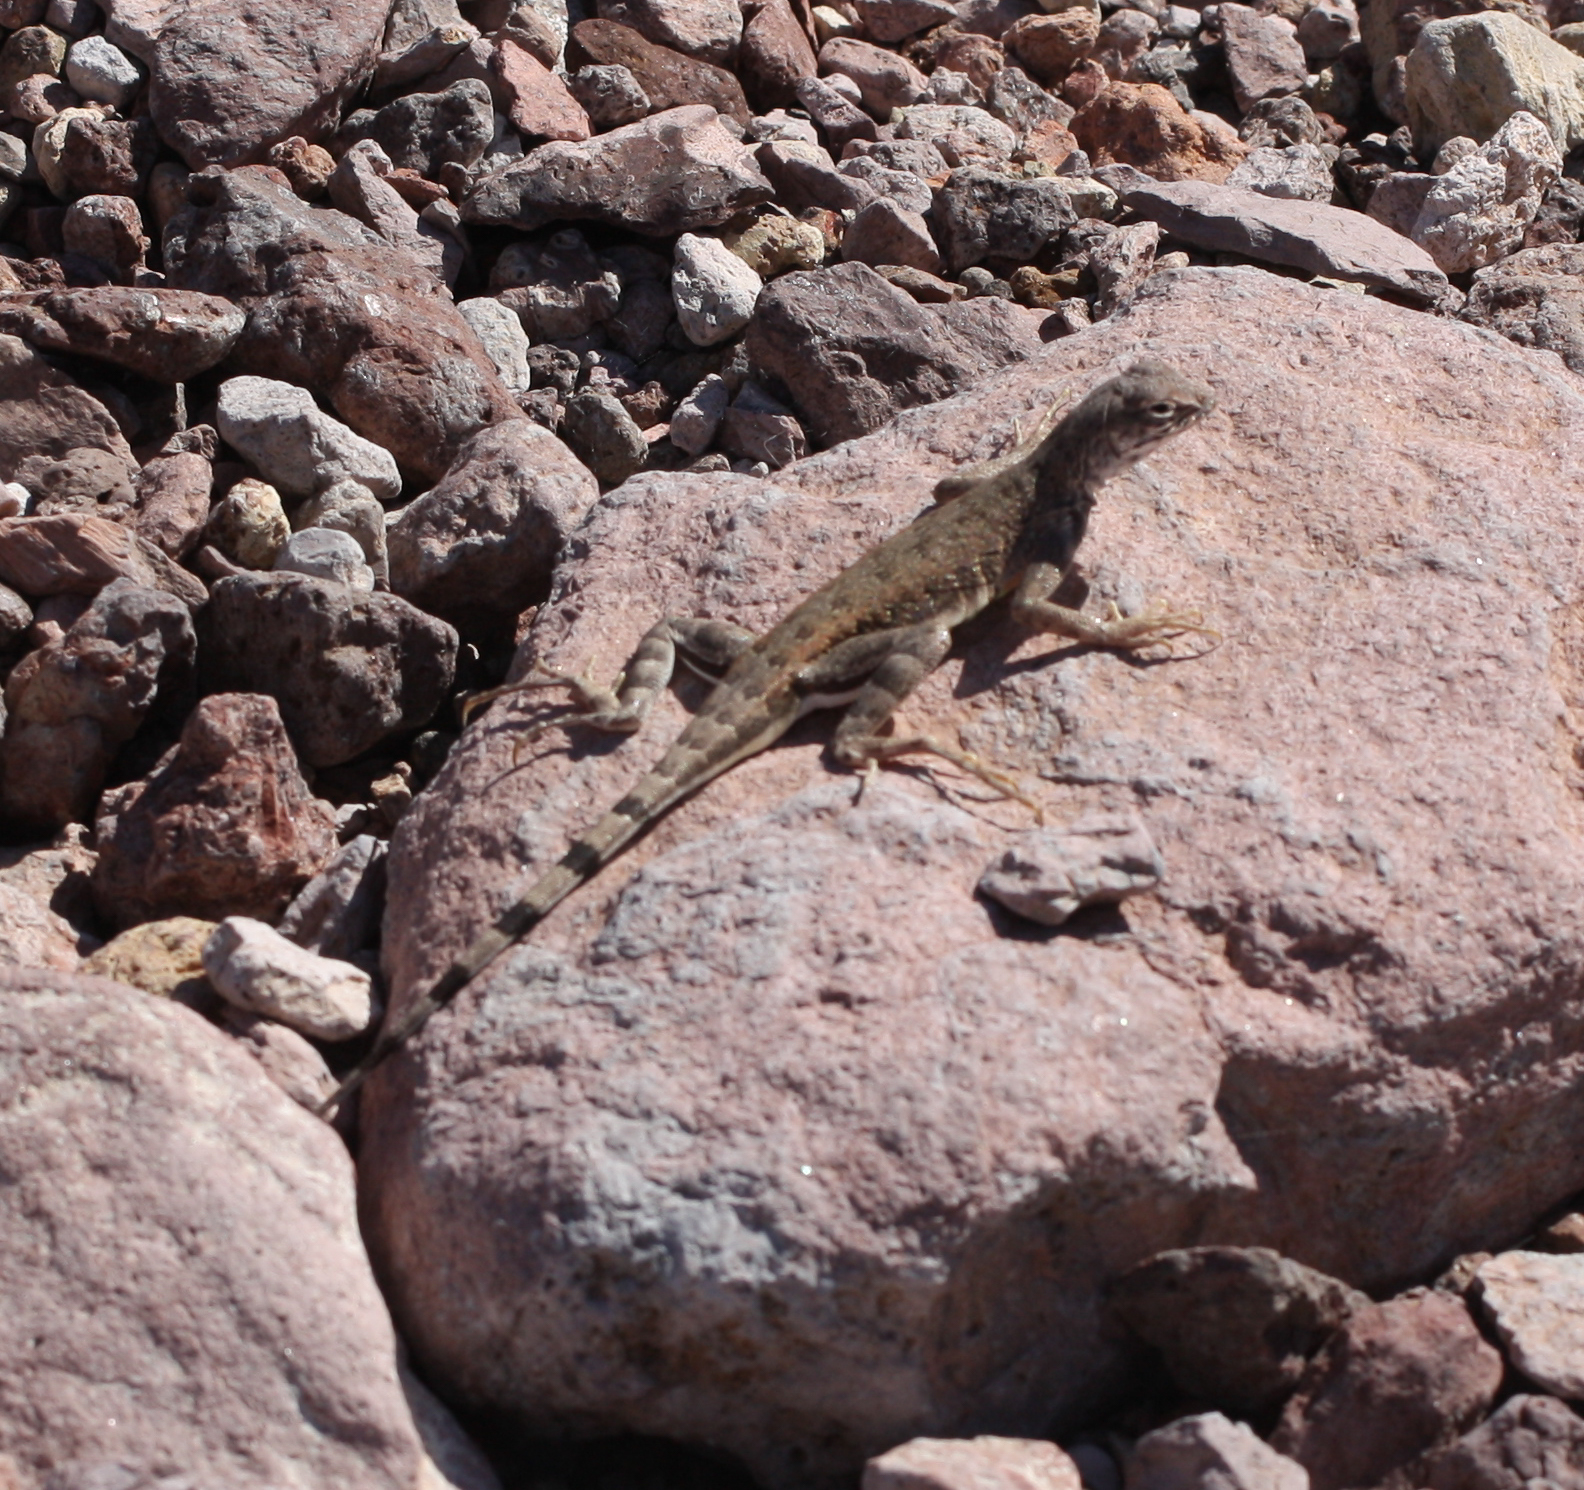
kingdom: Animalia
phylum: Chordata
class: Squamata
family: Phrynosomatidae
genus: Callisaurus
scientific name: Callisaurus draconoides
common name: Zebra-tailed lizard
